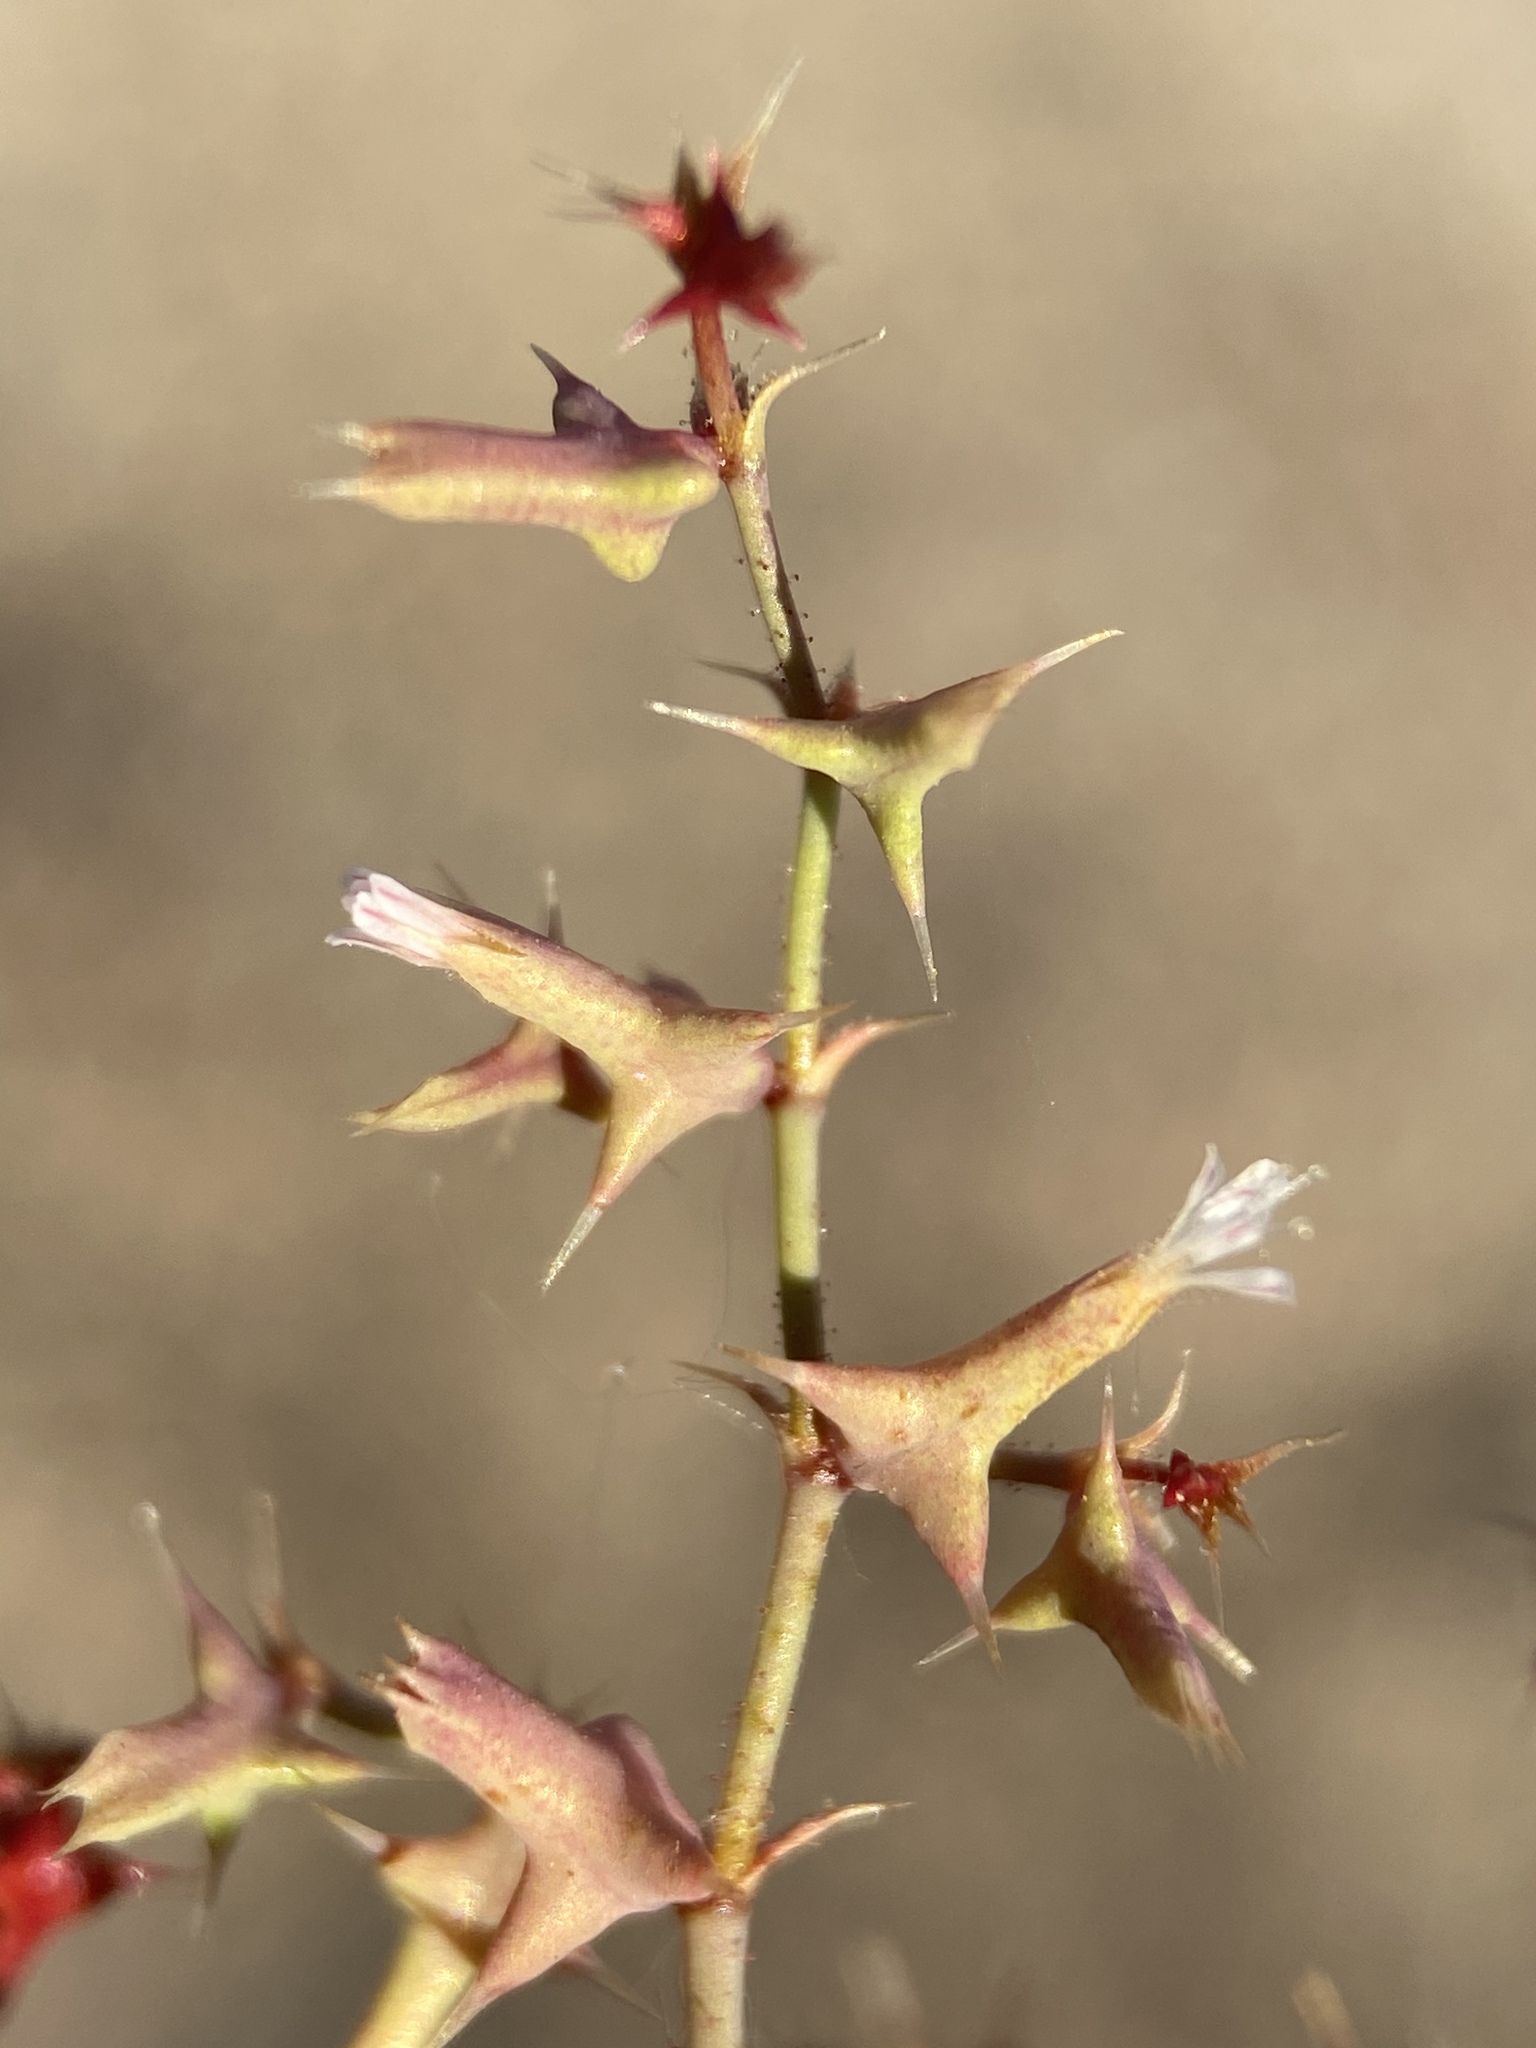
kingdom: Plantae
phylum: Tracheophyta
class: Magnoliopsida
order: Caryophyllales
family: Polygonaceae
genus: Centrostegia
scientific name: Centrostegia thurberi
